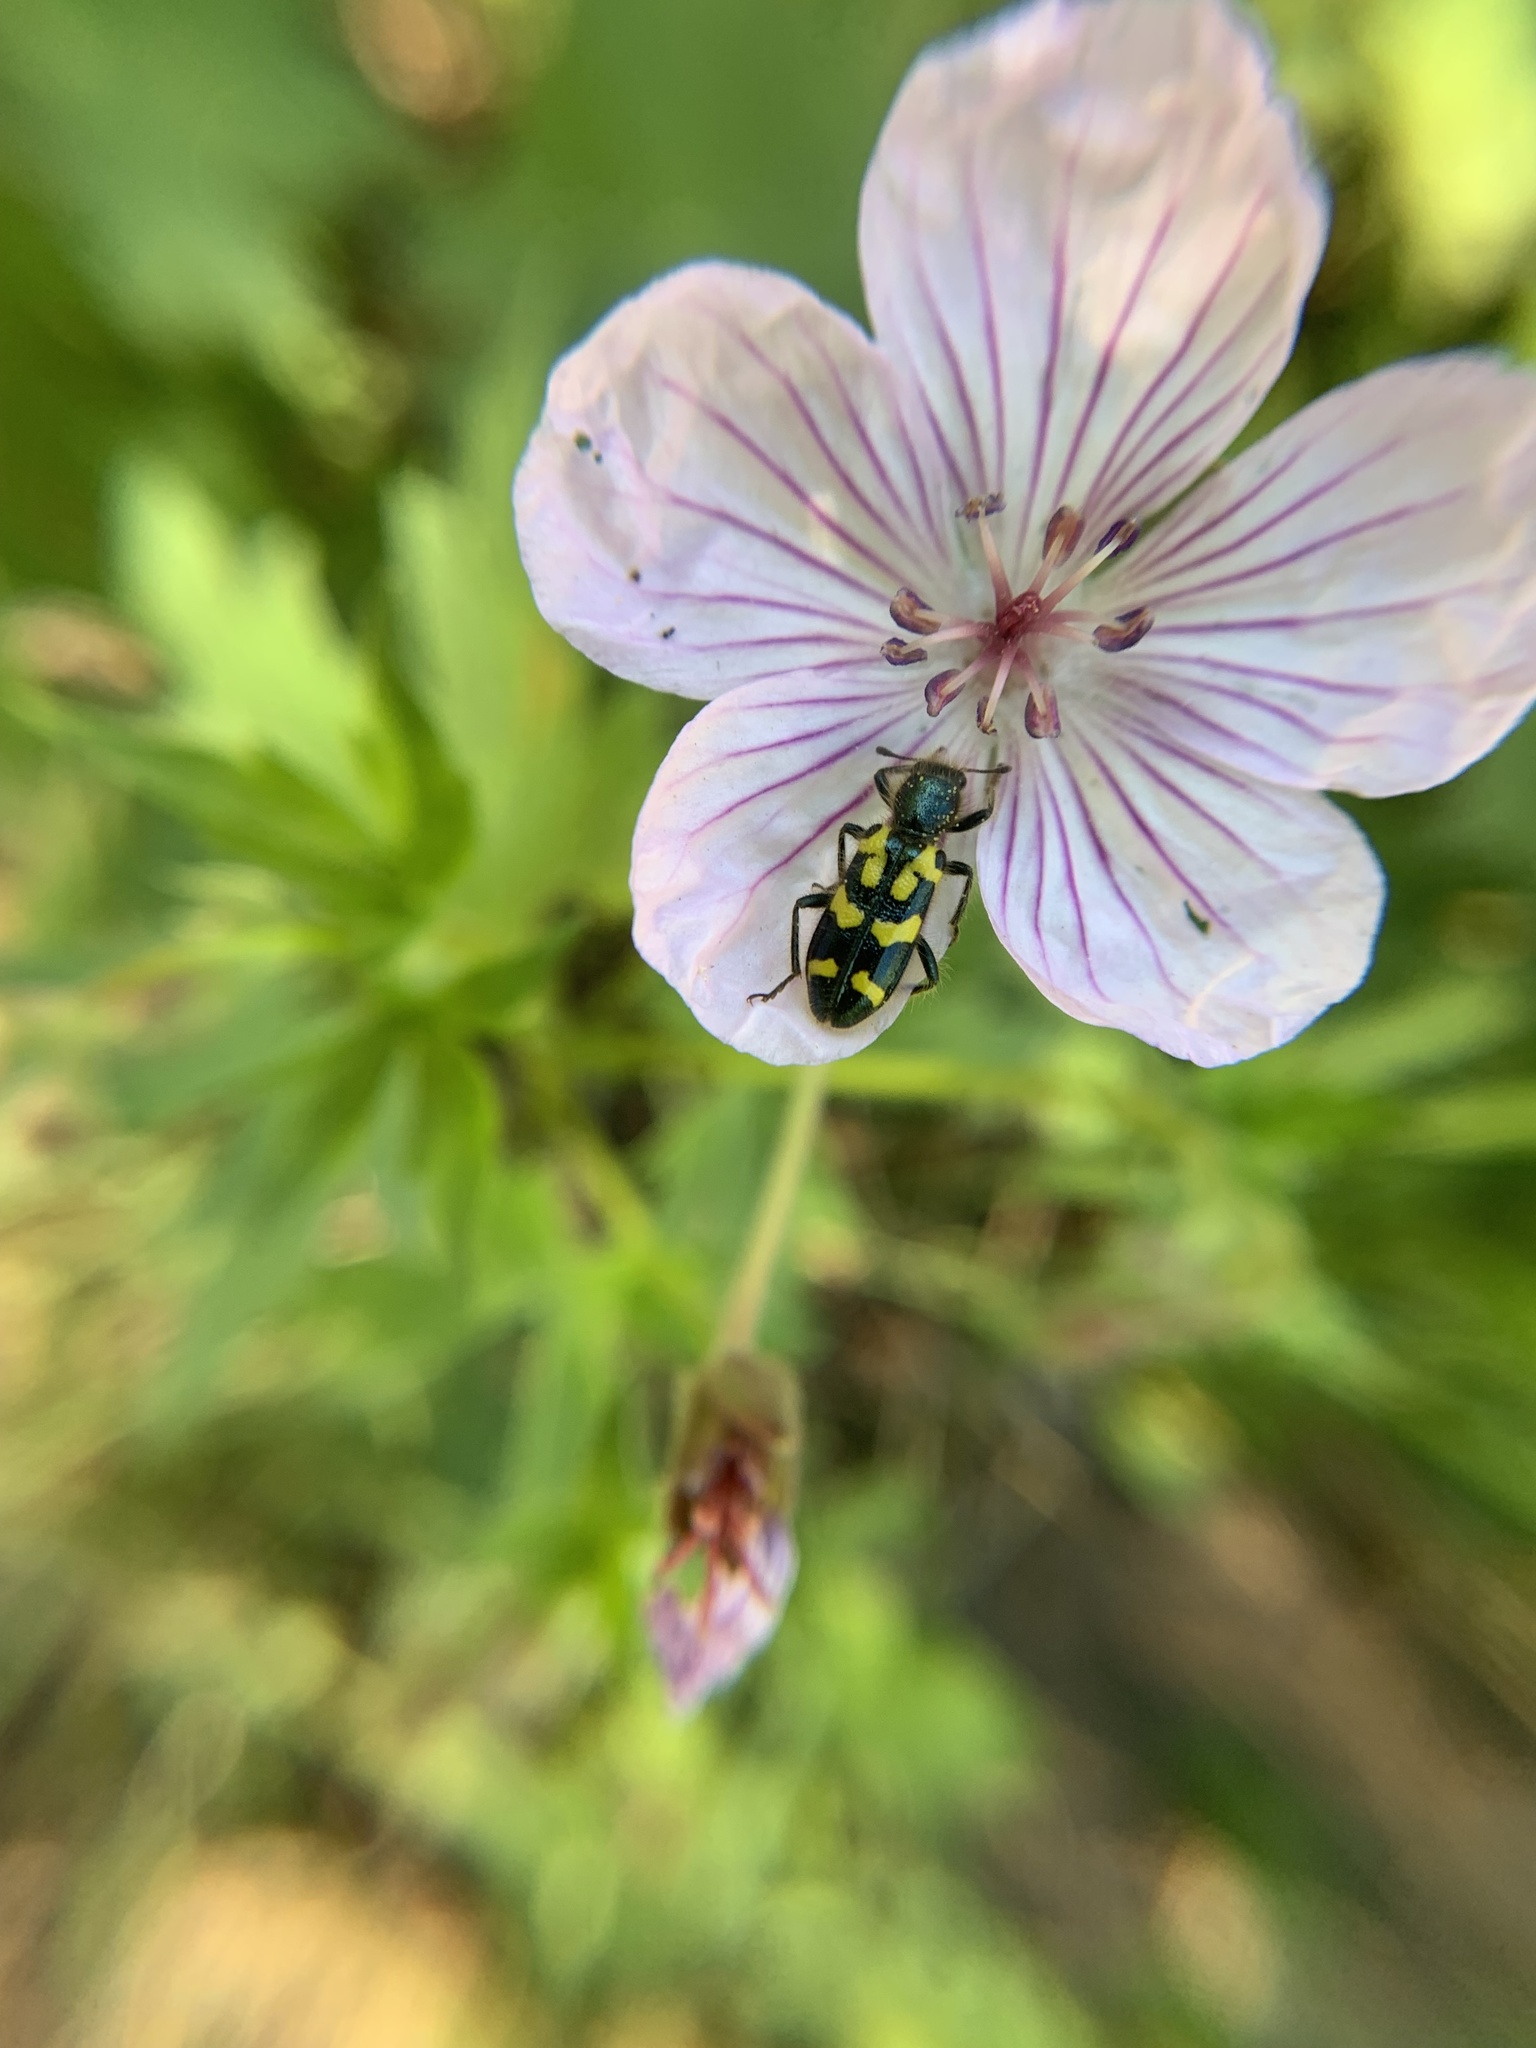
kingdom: Animalia
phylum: Arthropoda
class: Insecta
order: Coleoptera
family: Cleridae
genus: Trichodes
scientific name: Trichodes ornatus
